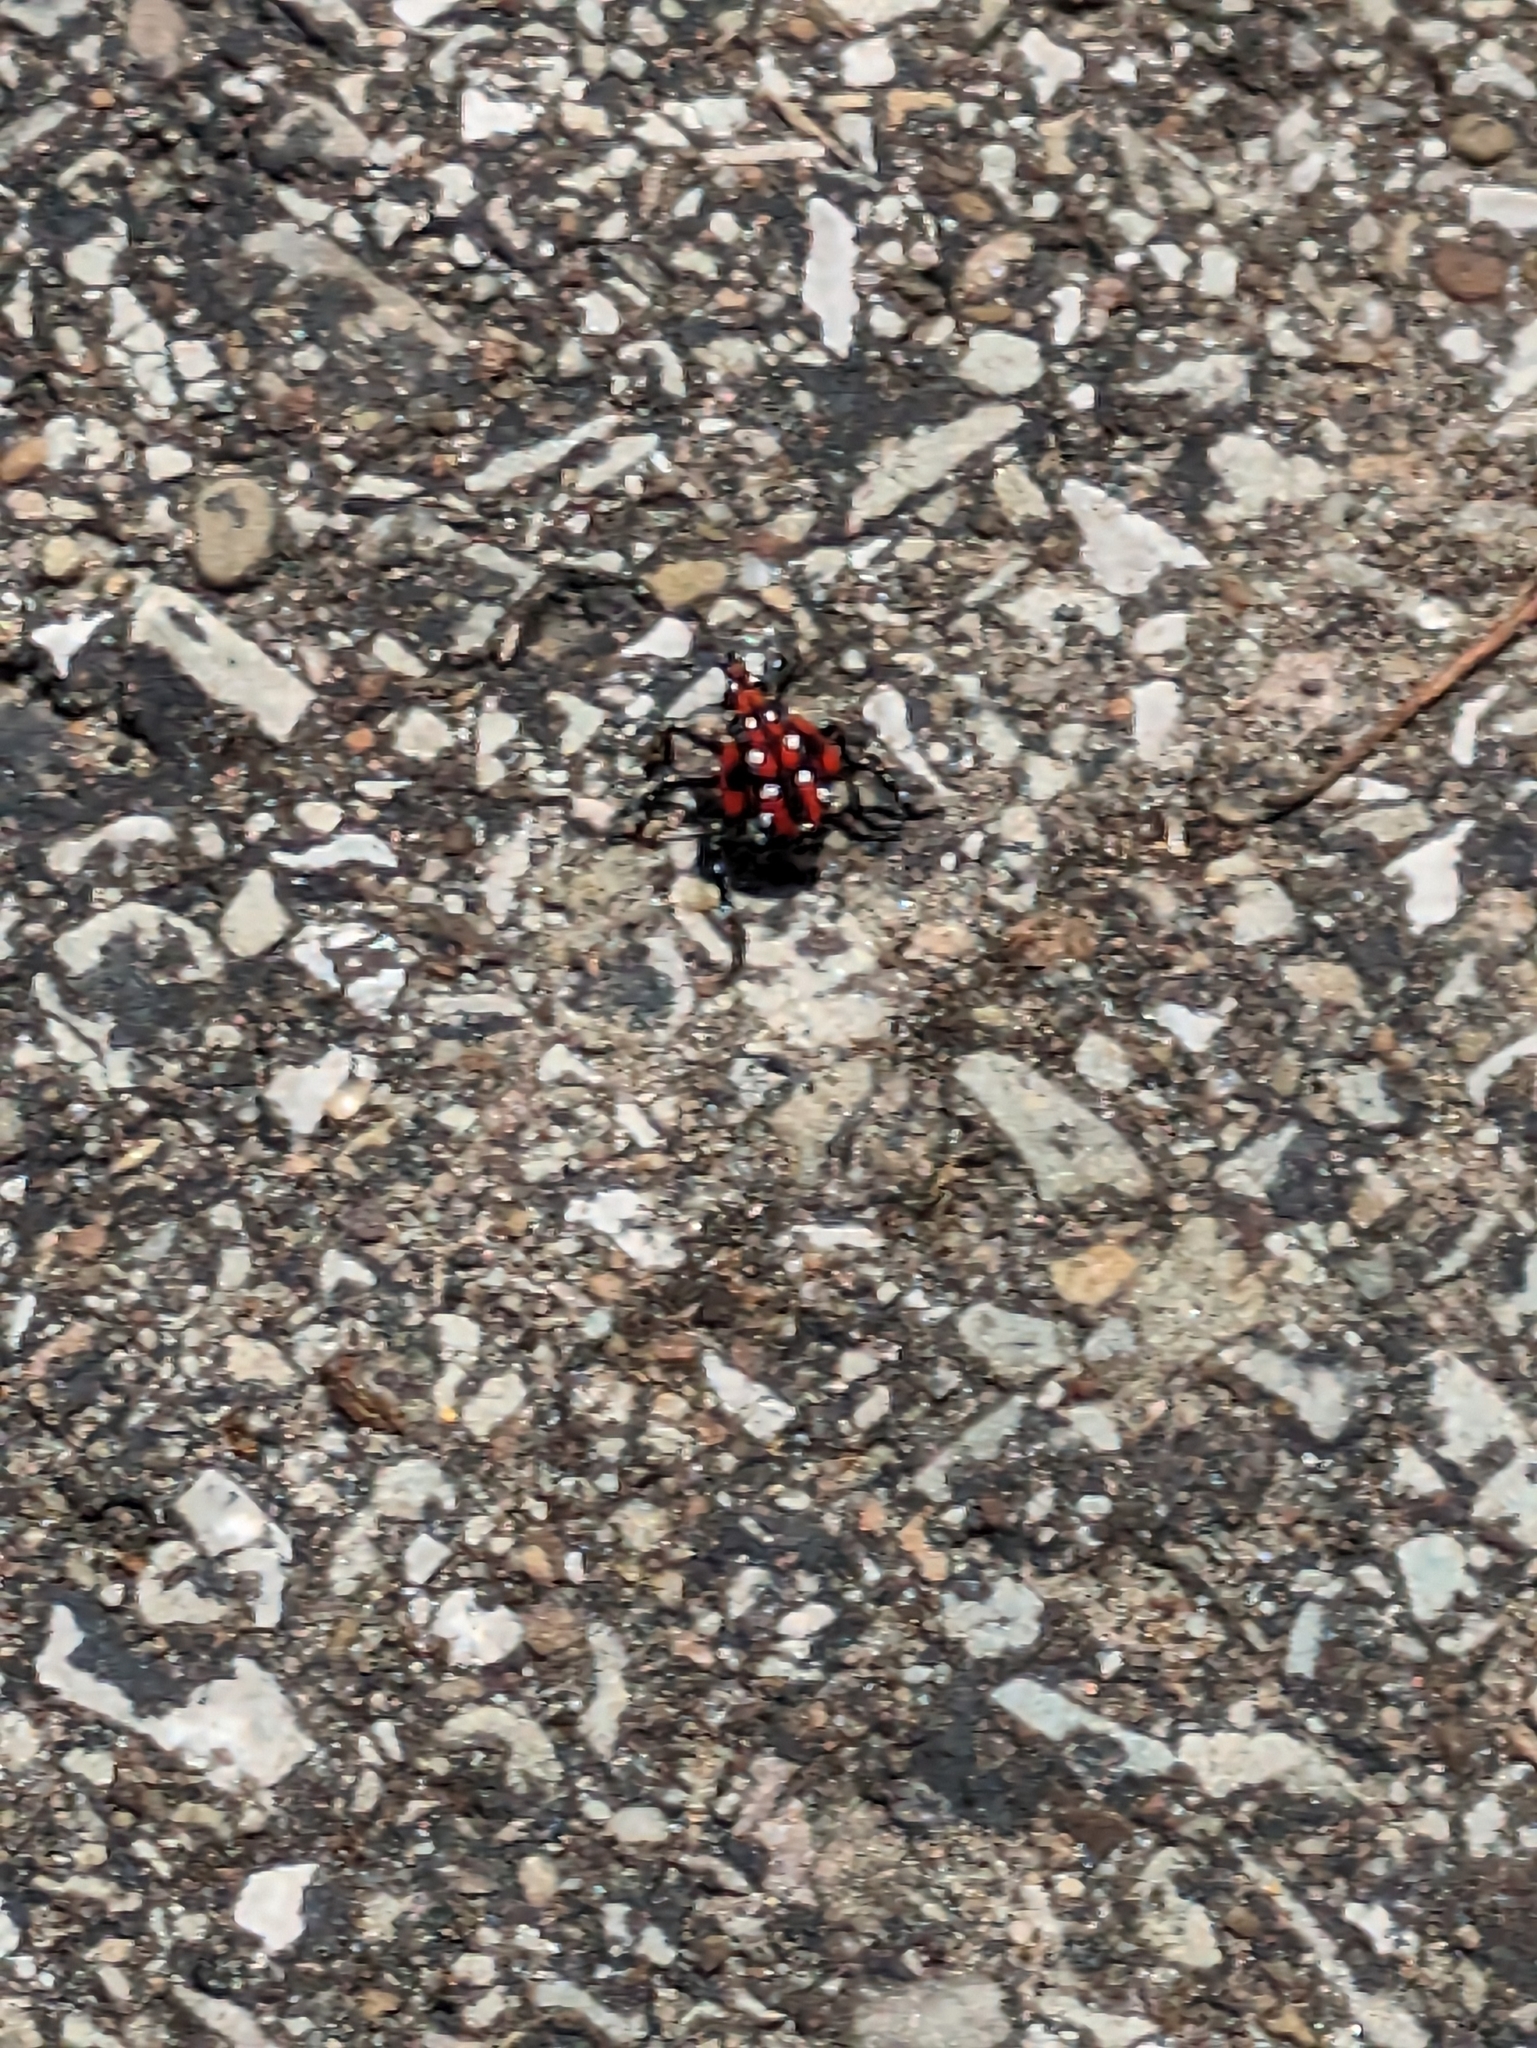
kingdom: Animalia
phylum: Arthropoda
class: Insecta
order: Hemiptera
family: Fulgoridae
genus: Lycorma
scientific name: Lycorma delicatula
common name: Spotted lanternfly
